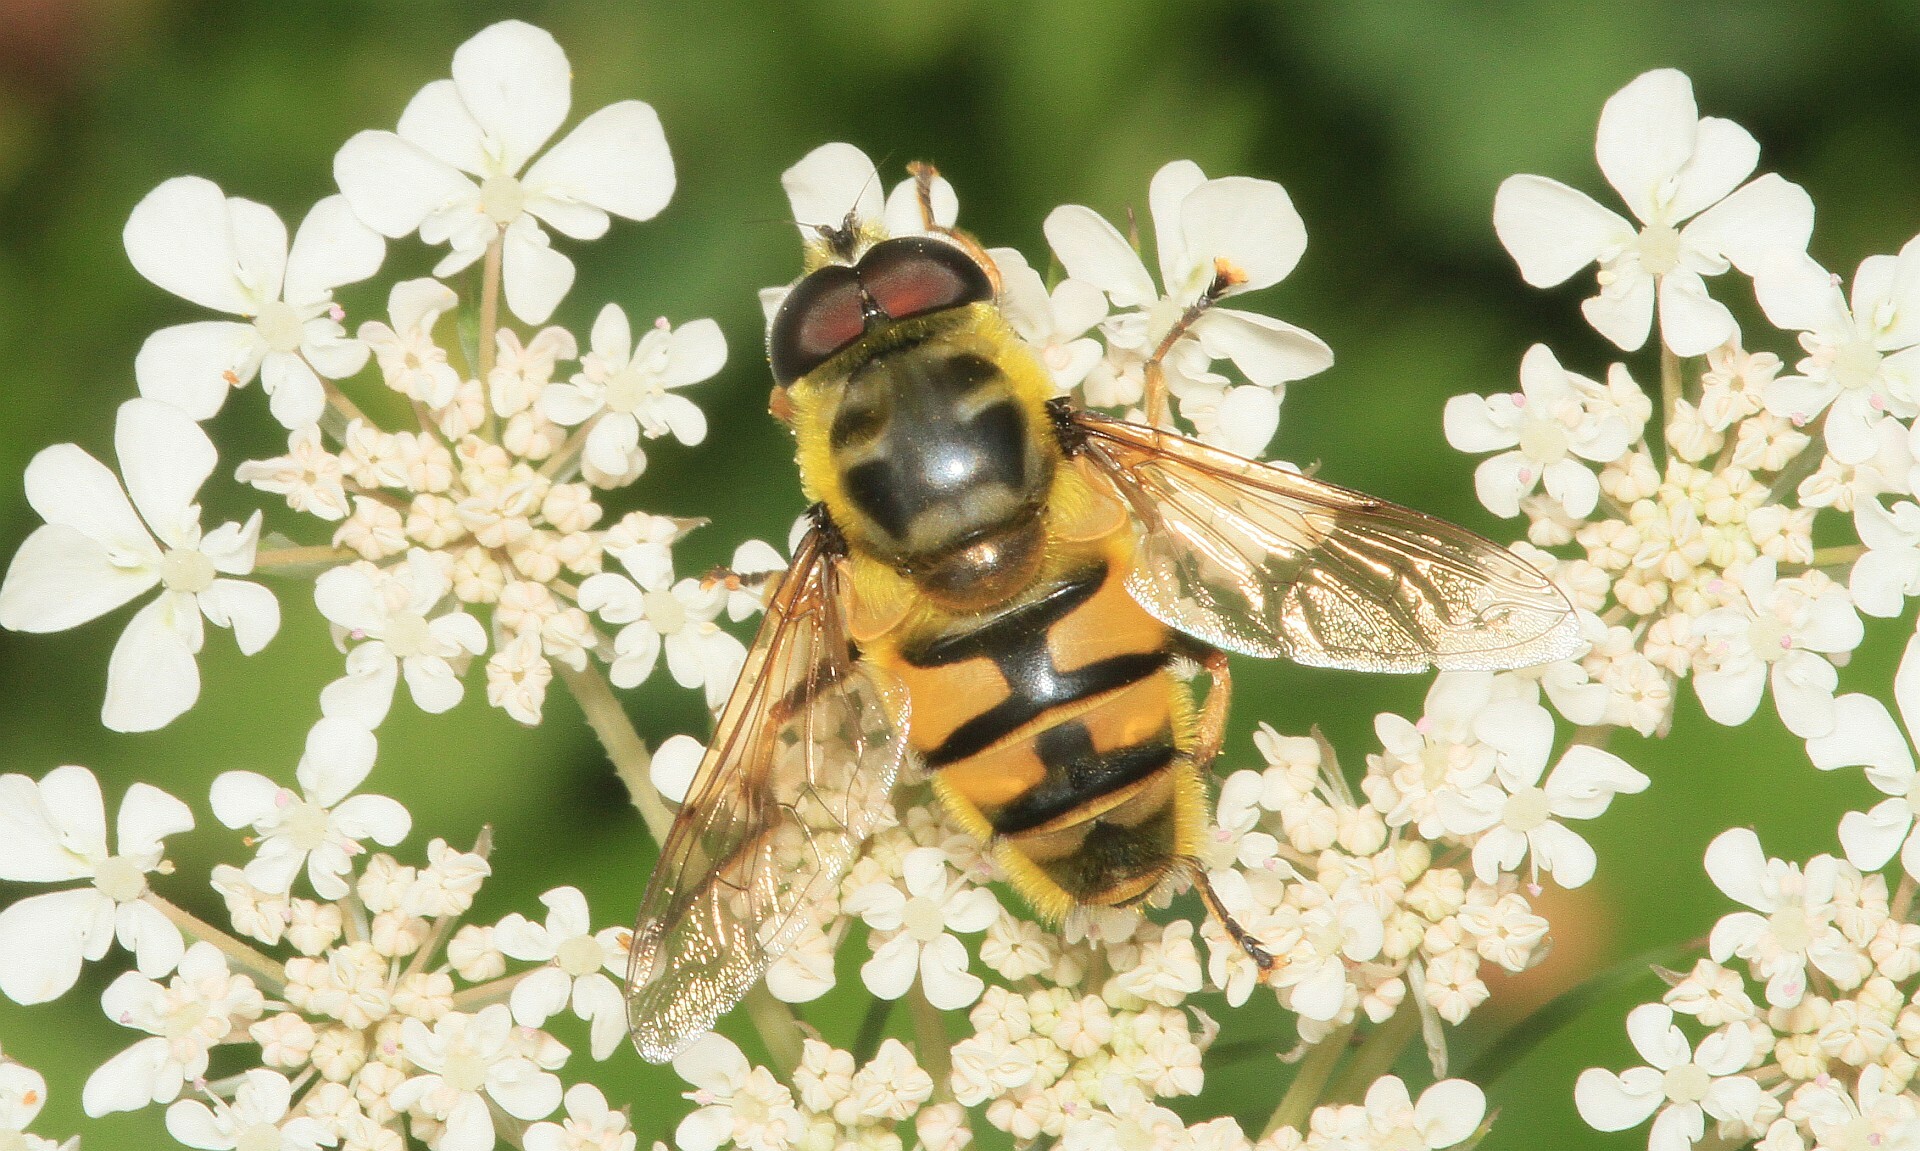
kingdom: Animalia
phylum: Arthropoda
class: Insecta
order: Diptera
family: Syrphidae
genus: Myathropa
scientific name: Myathropa florea
